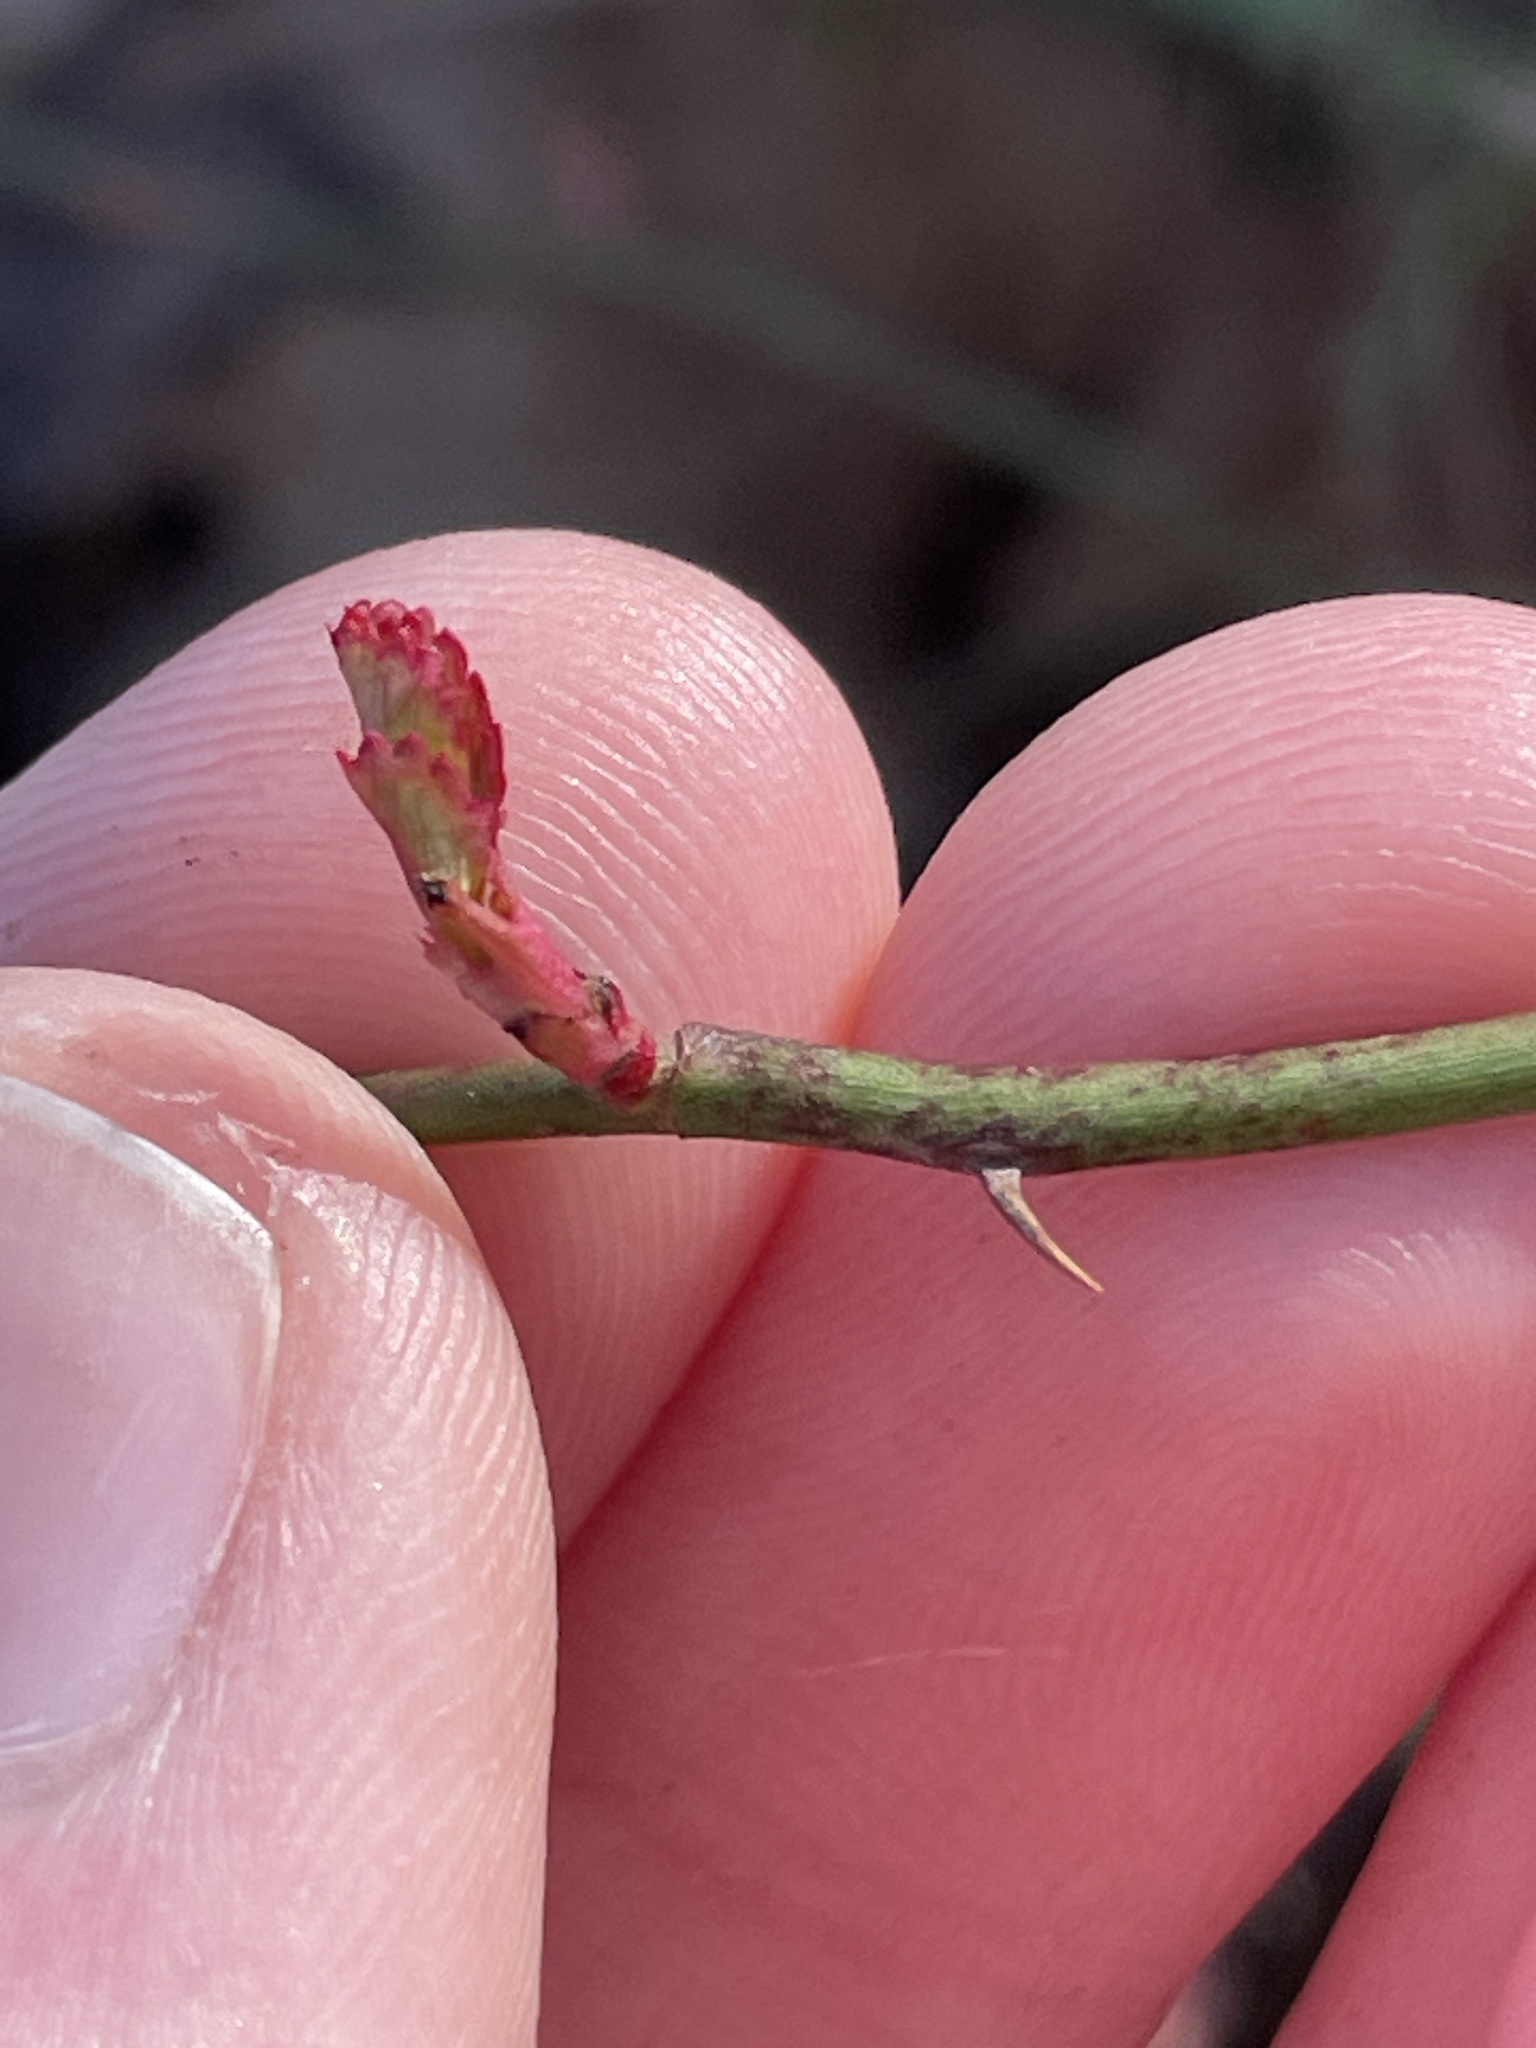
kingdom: Plantae
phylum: Tracheophyta
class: Magnoliopsida
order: Rosales
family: Rosaceae
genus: Rosa
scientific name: Rosa multiflora
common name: Multiflora rose
